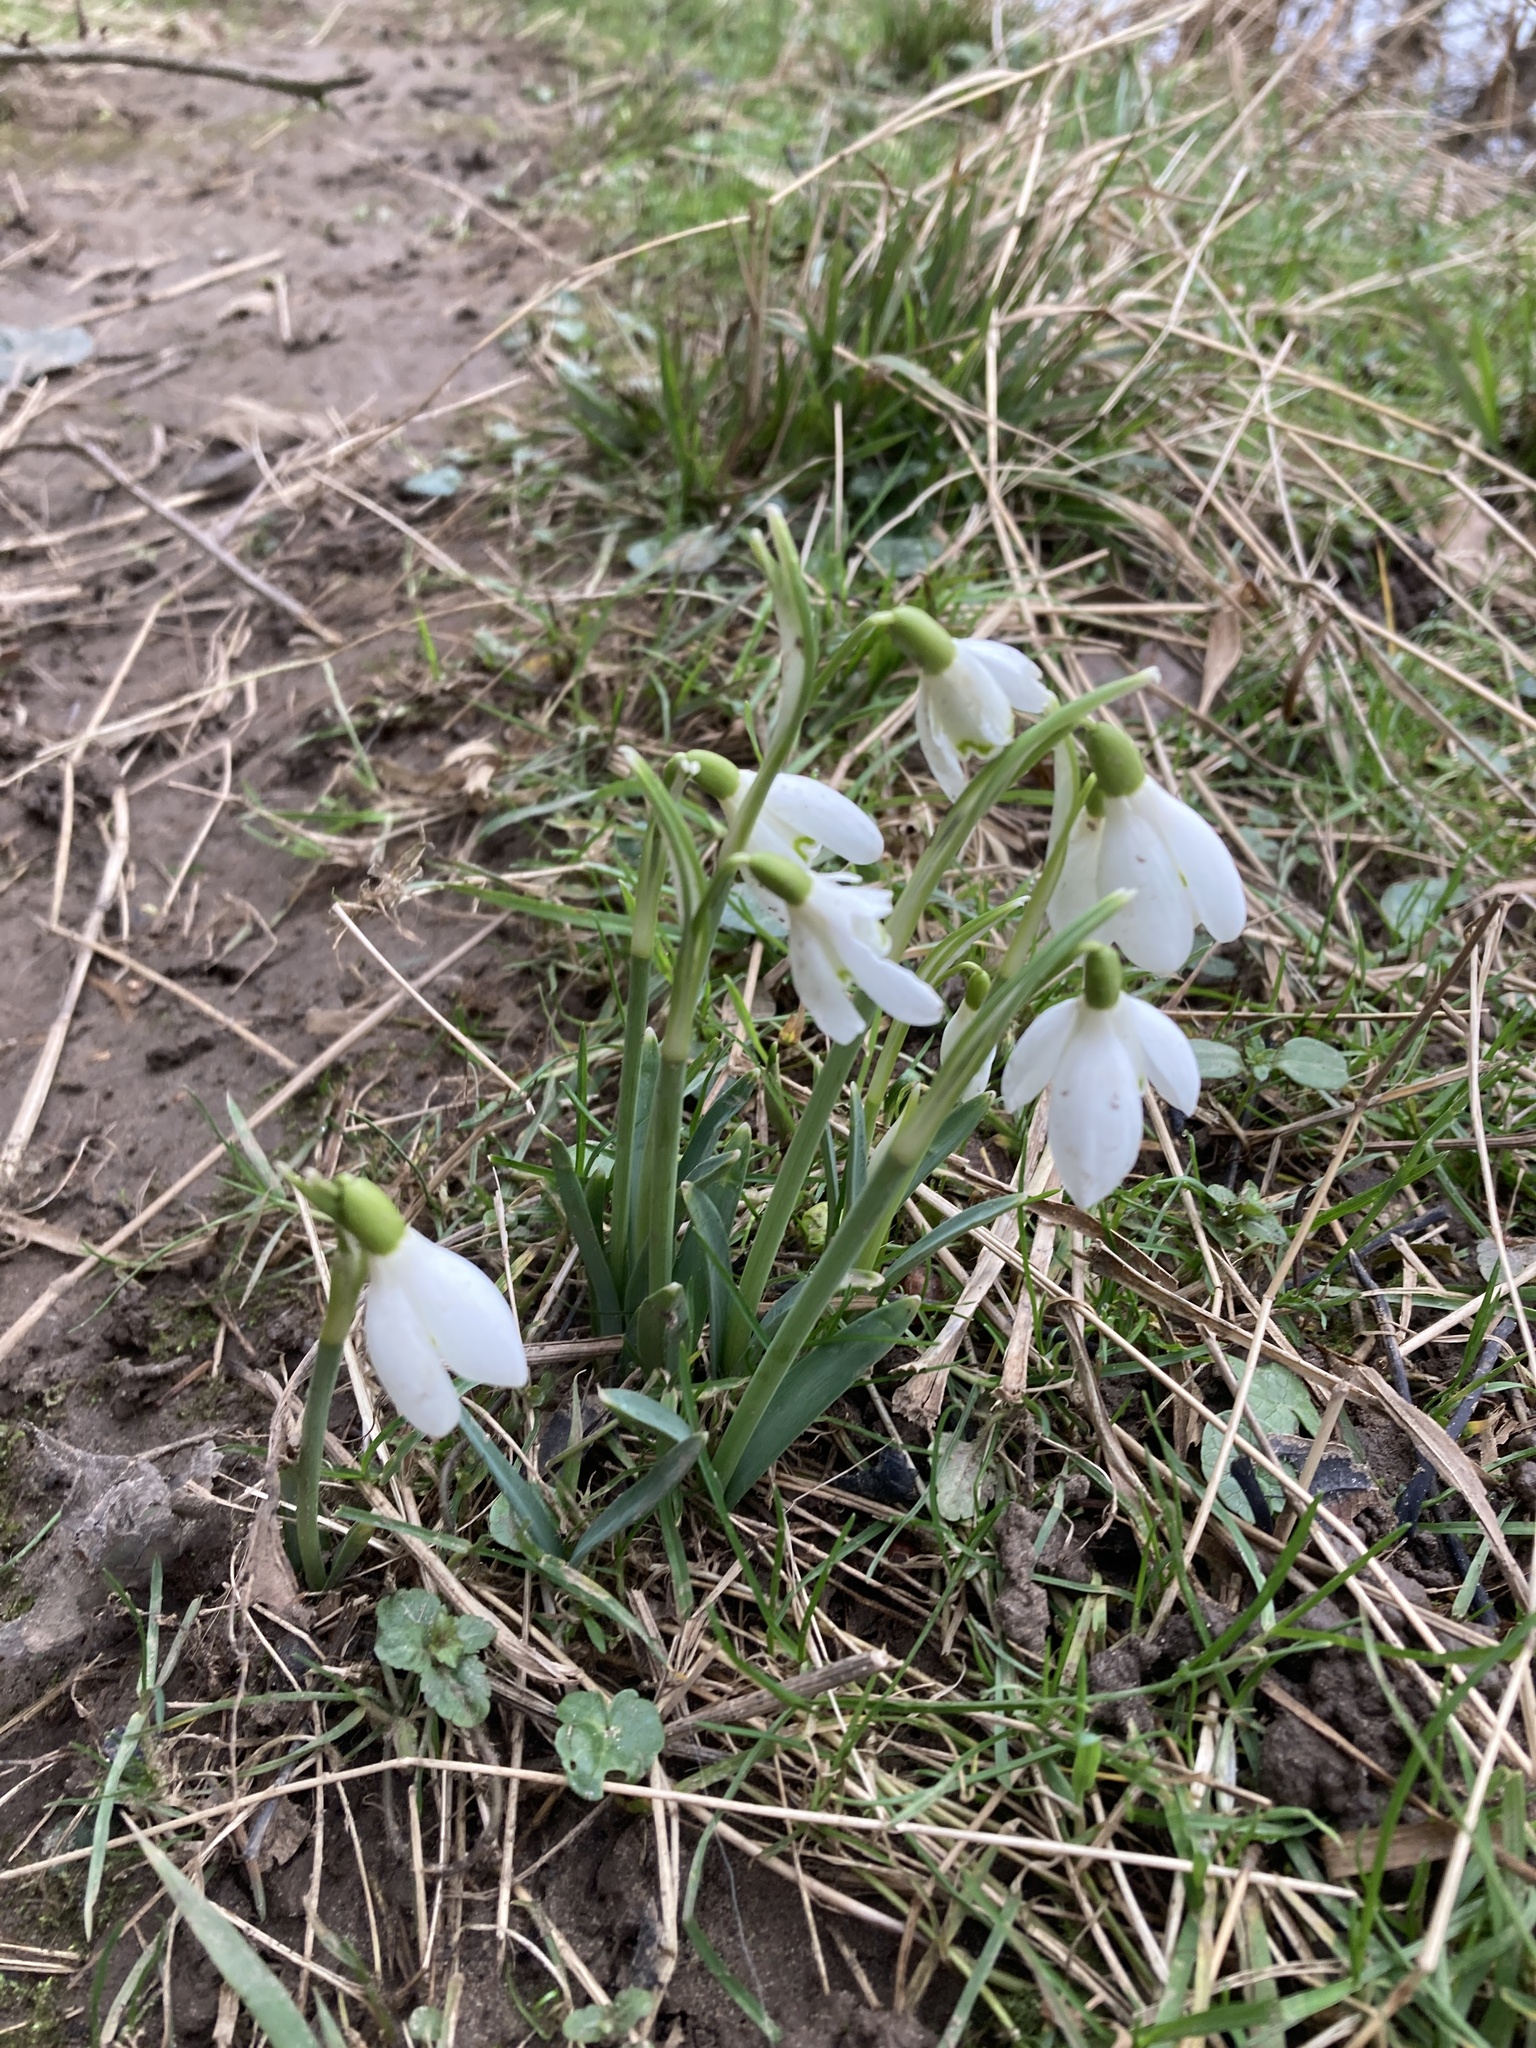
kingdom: Plantae
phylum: Tracheophyta
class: Liliopsida
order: Asparagales
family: Amaryllidaceae
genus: Galanthus
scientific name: Galanthus nivalis
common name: Snowdrop
